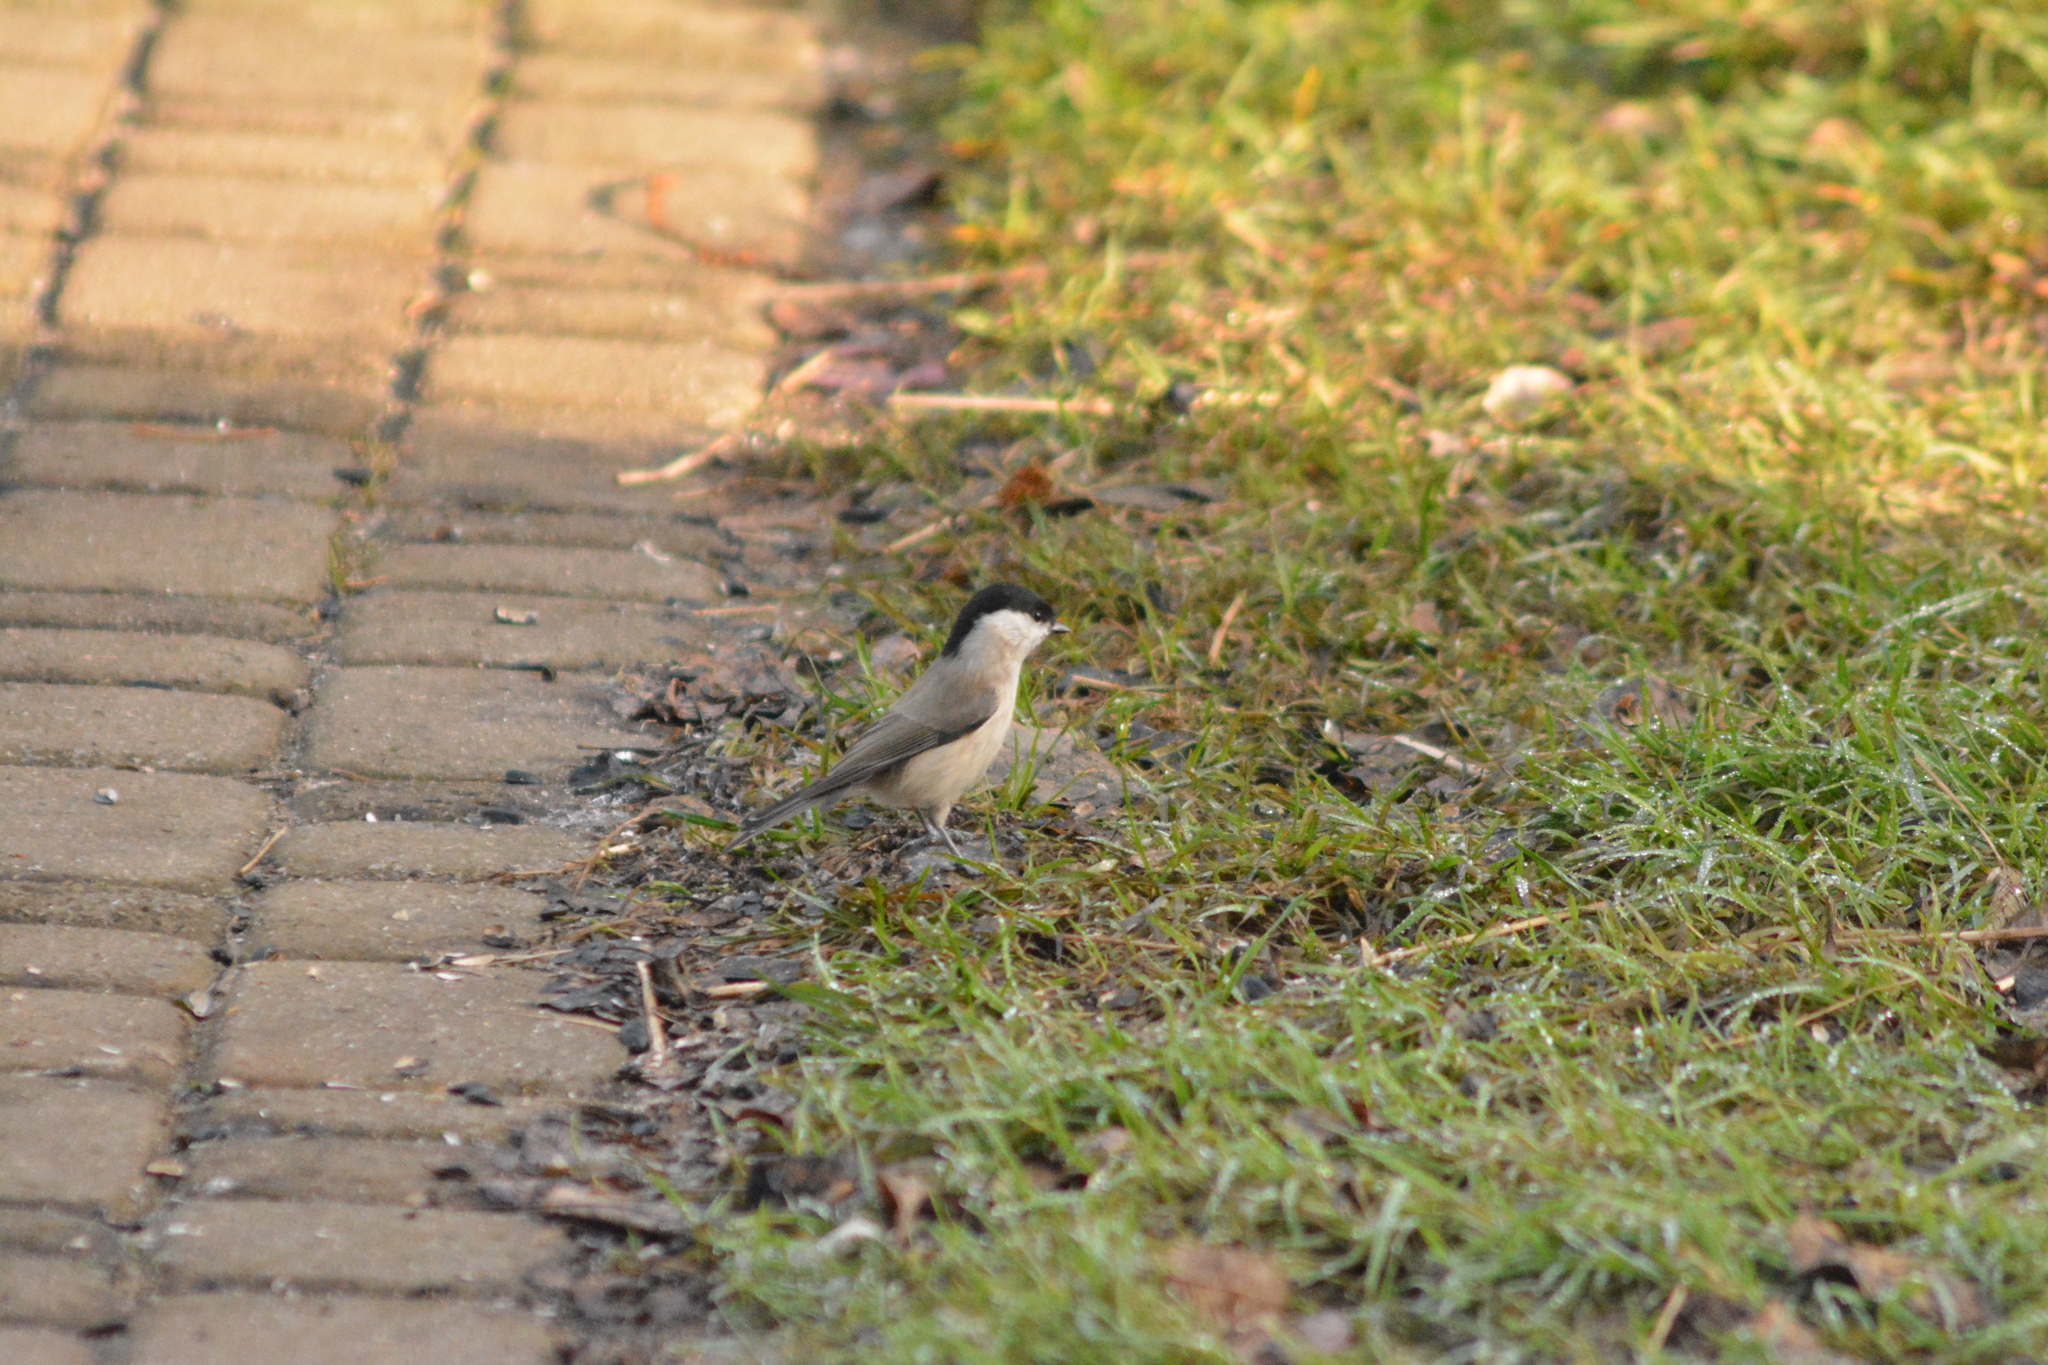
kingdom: Animalia
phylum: Chordata
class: Aves
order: Passeriformes
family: Paridae
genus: Poecile
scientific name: Poecile palustris
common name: Marsh tit
